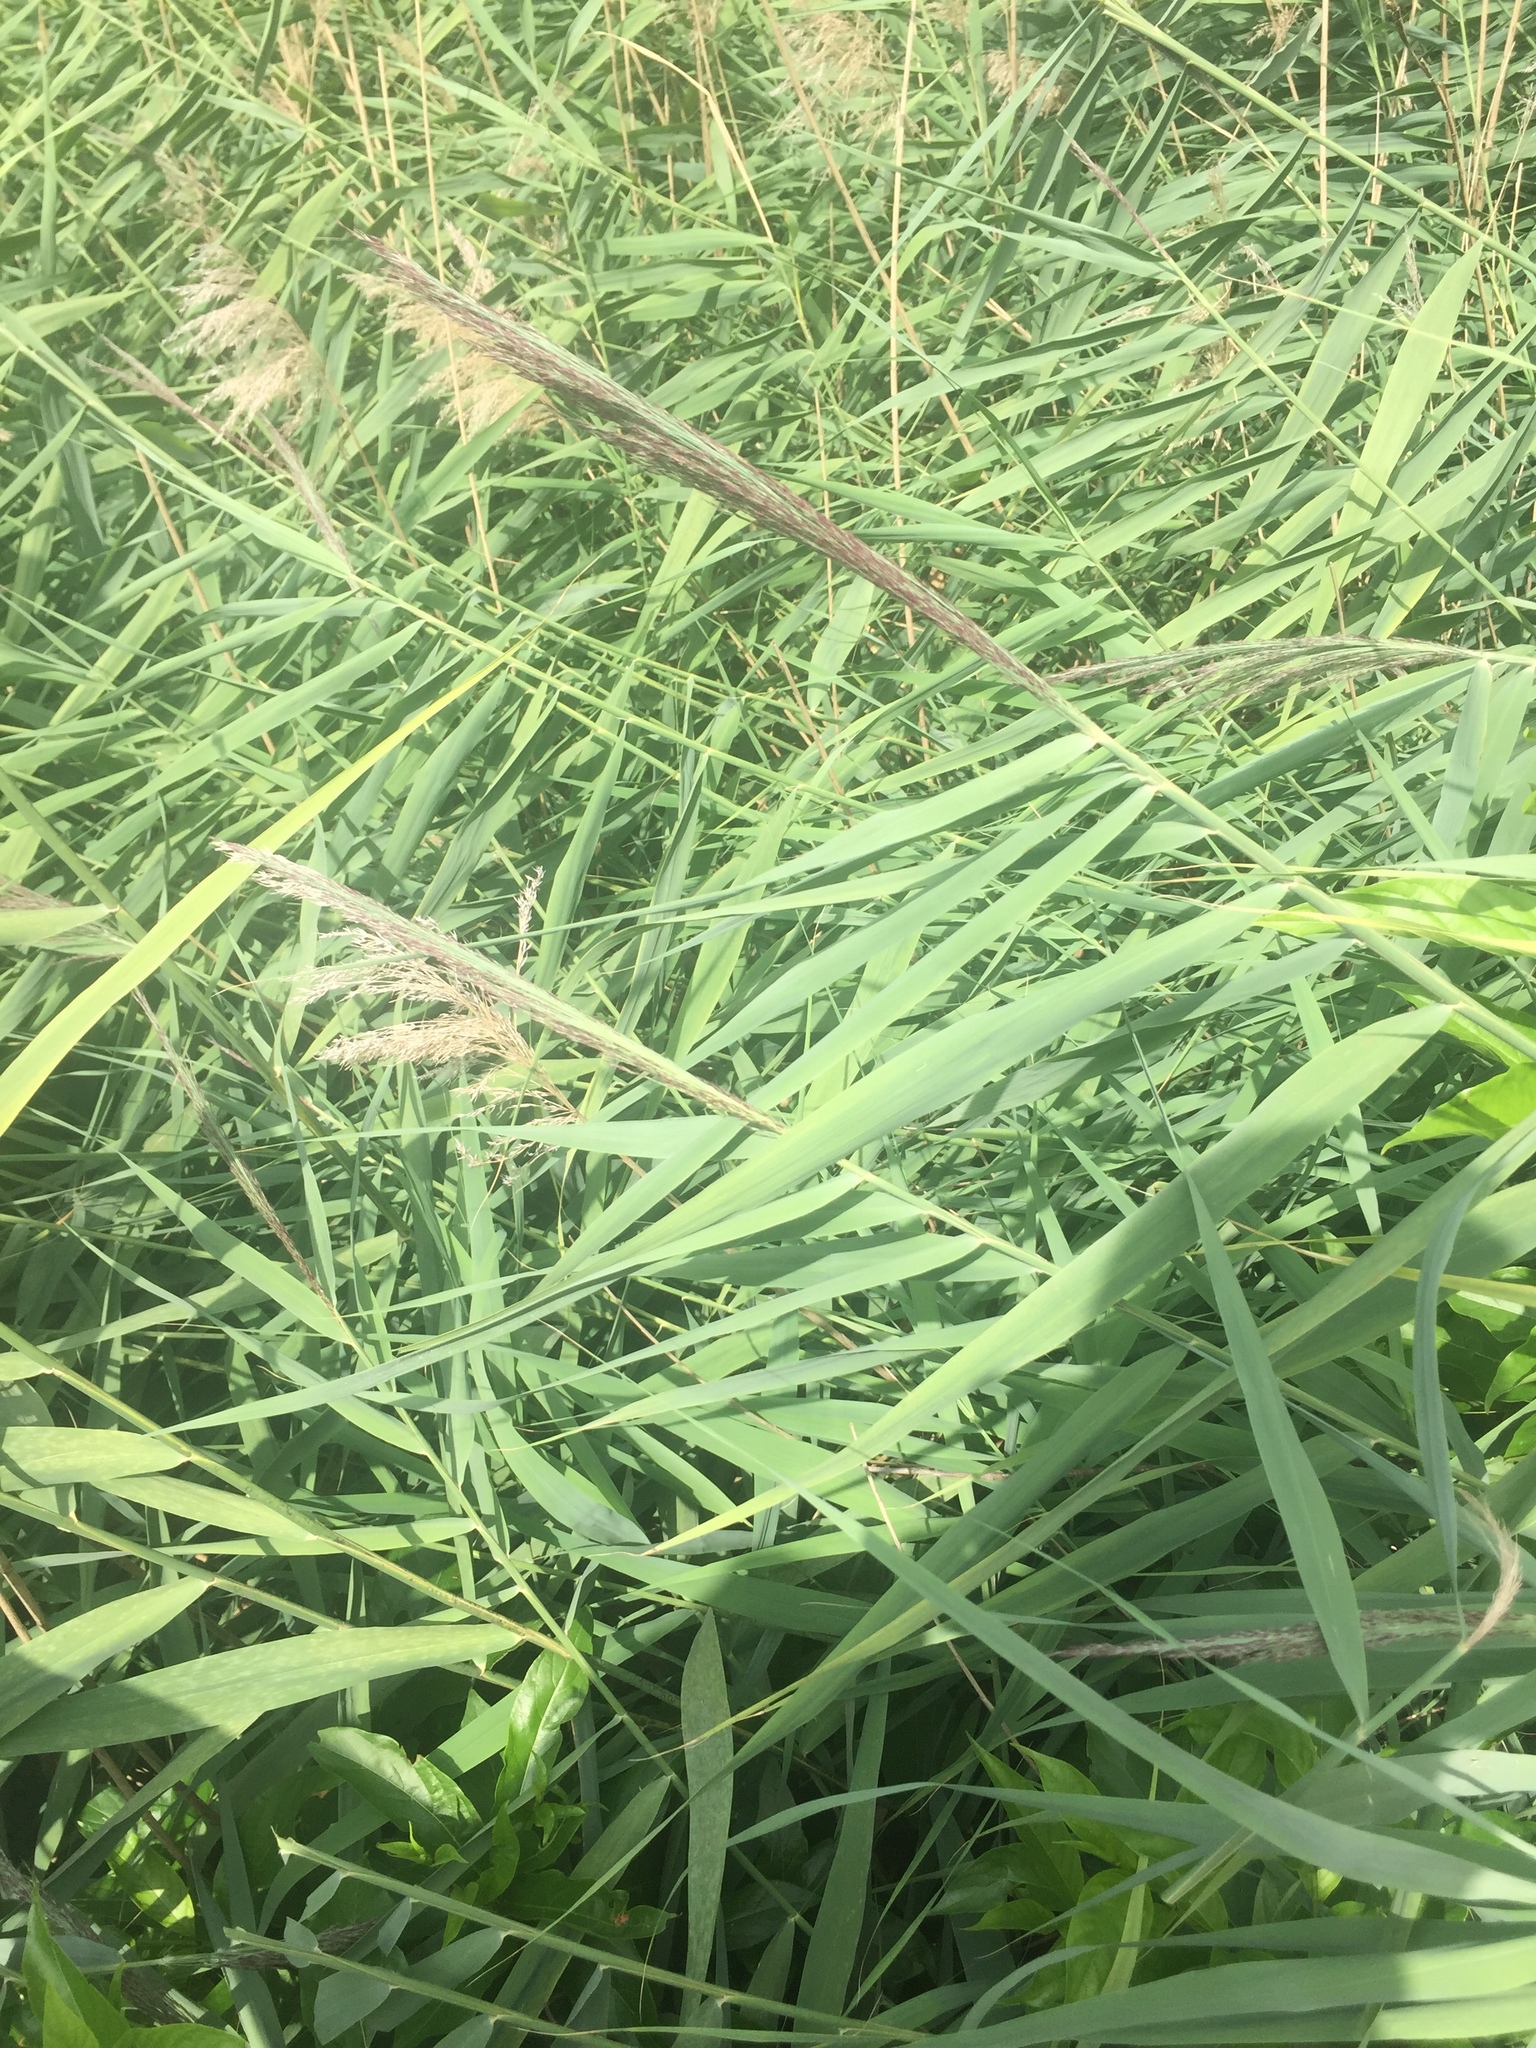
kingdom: Plantae
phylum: Tracheophyta
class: Liliopsida
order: Poales
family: Poaceae
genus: Phragmites
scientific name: Phragmites australis
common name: Common reed
